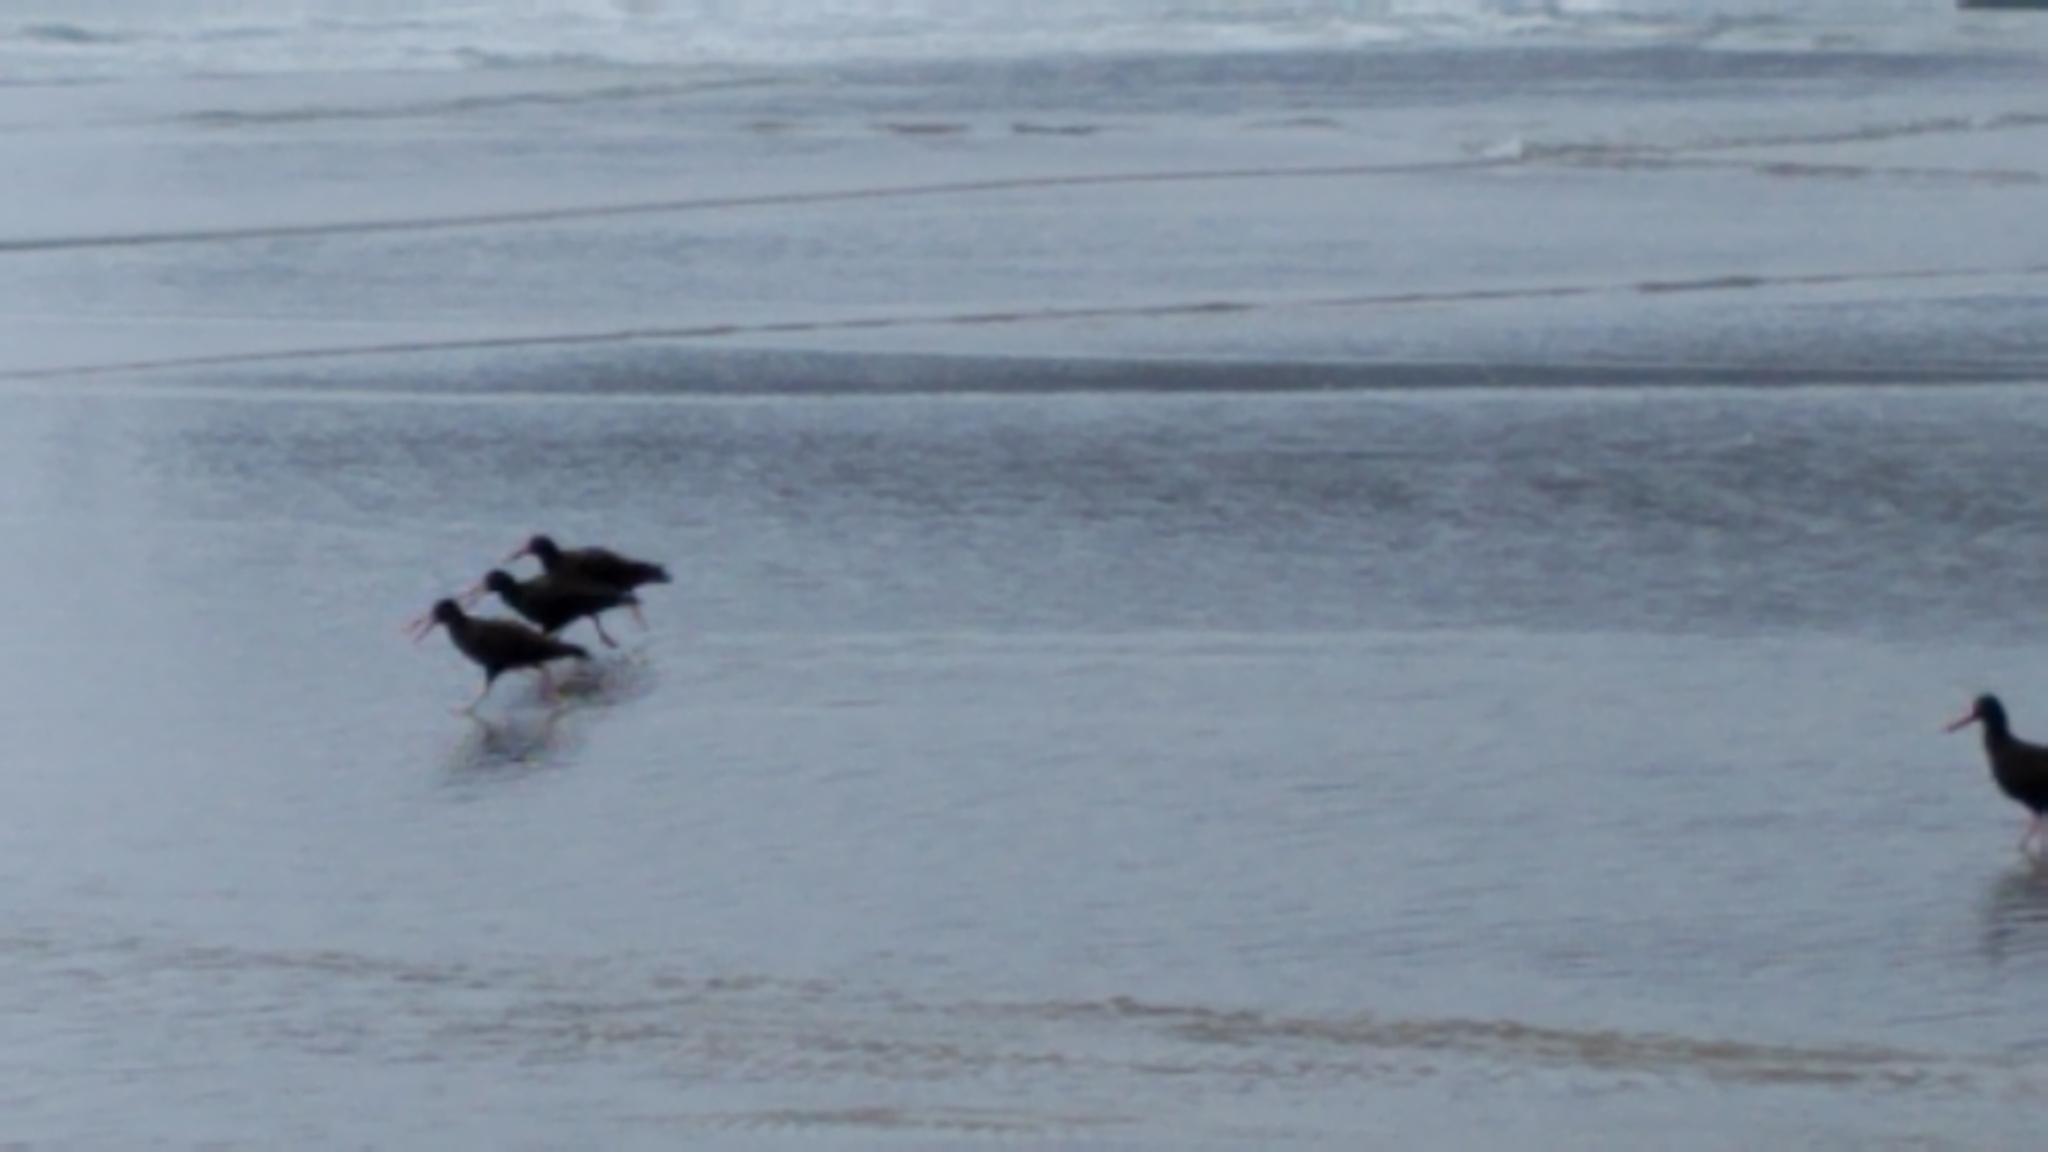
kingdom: Animalia
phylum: Chordata
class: Aves
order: Charadriiformes
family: Haematopodidae
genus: Haematopus
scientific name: Haematopus bachmani
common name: Black oystercatcher
